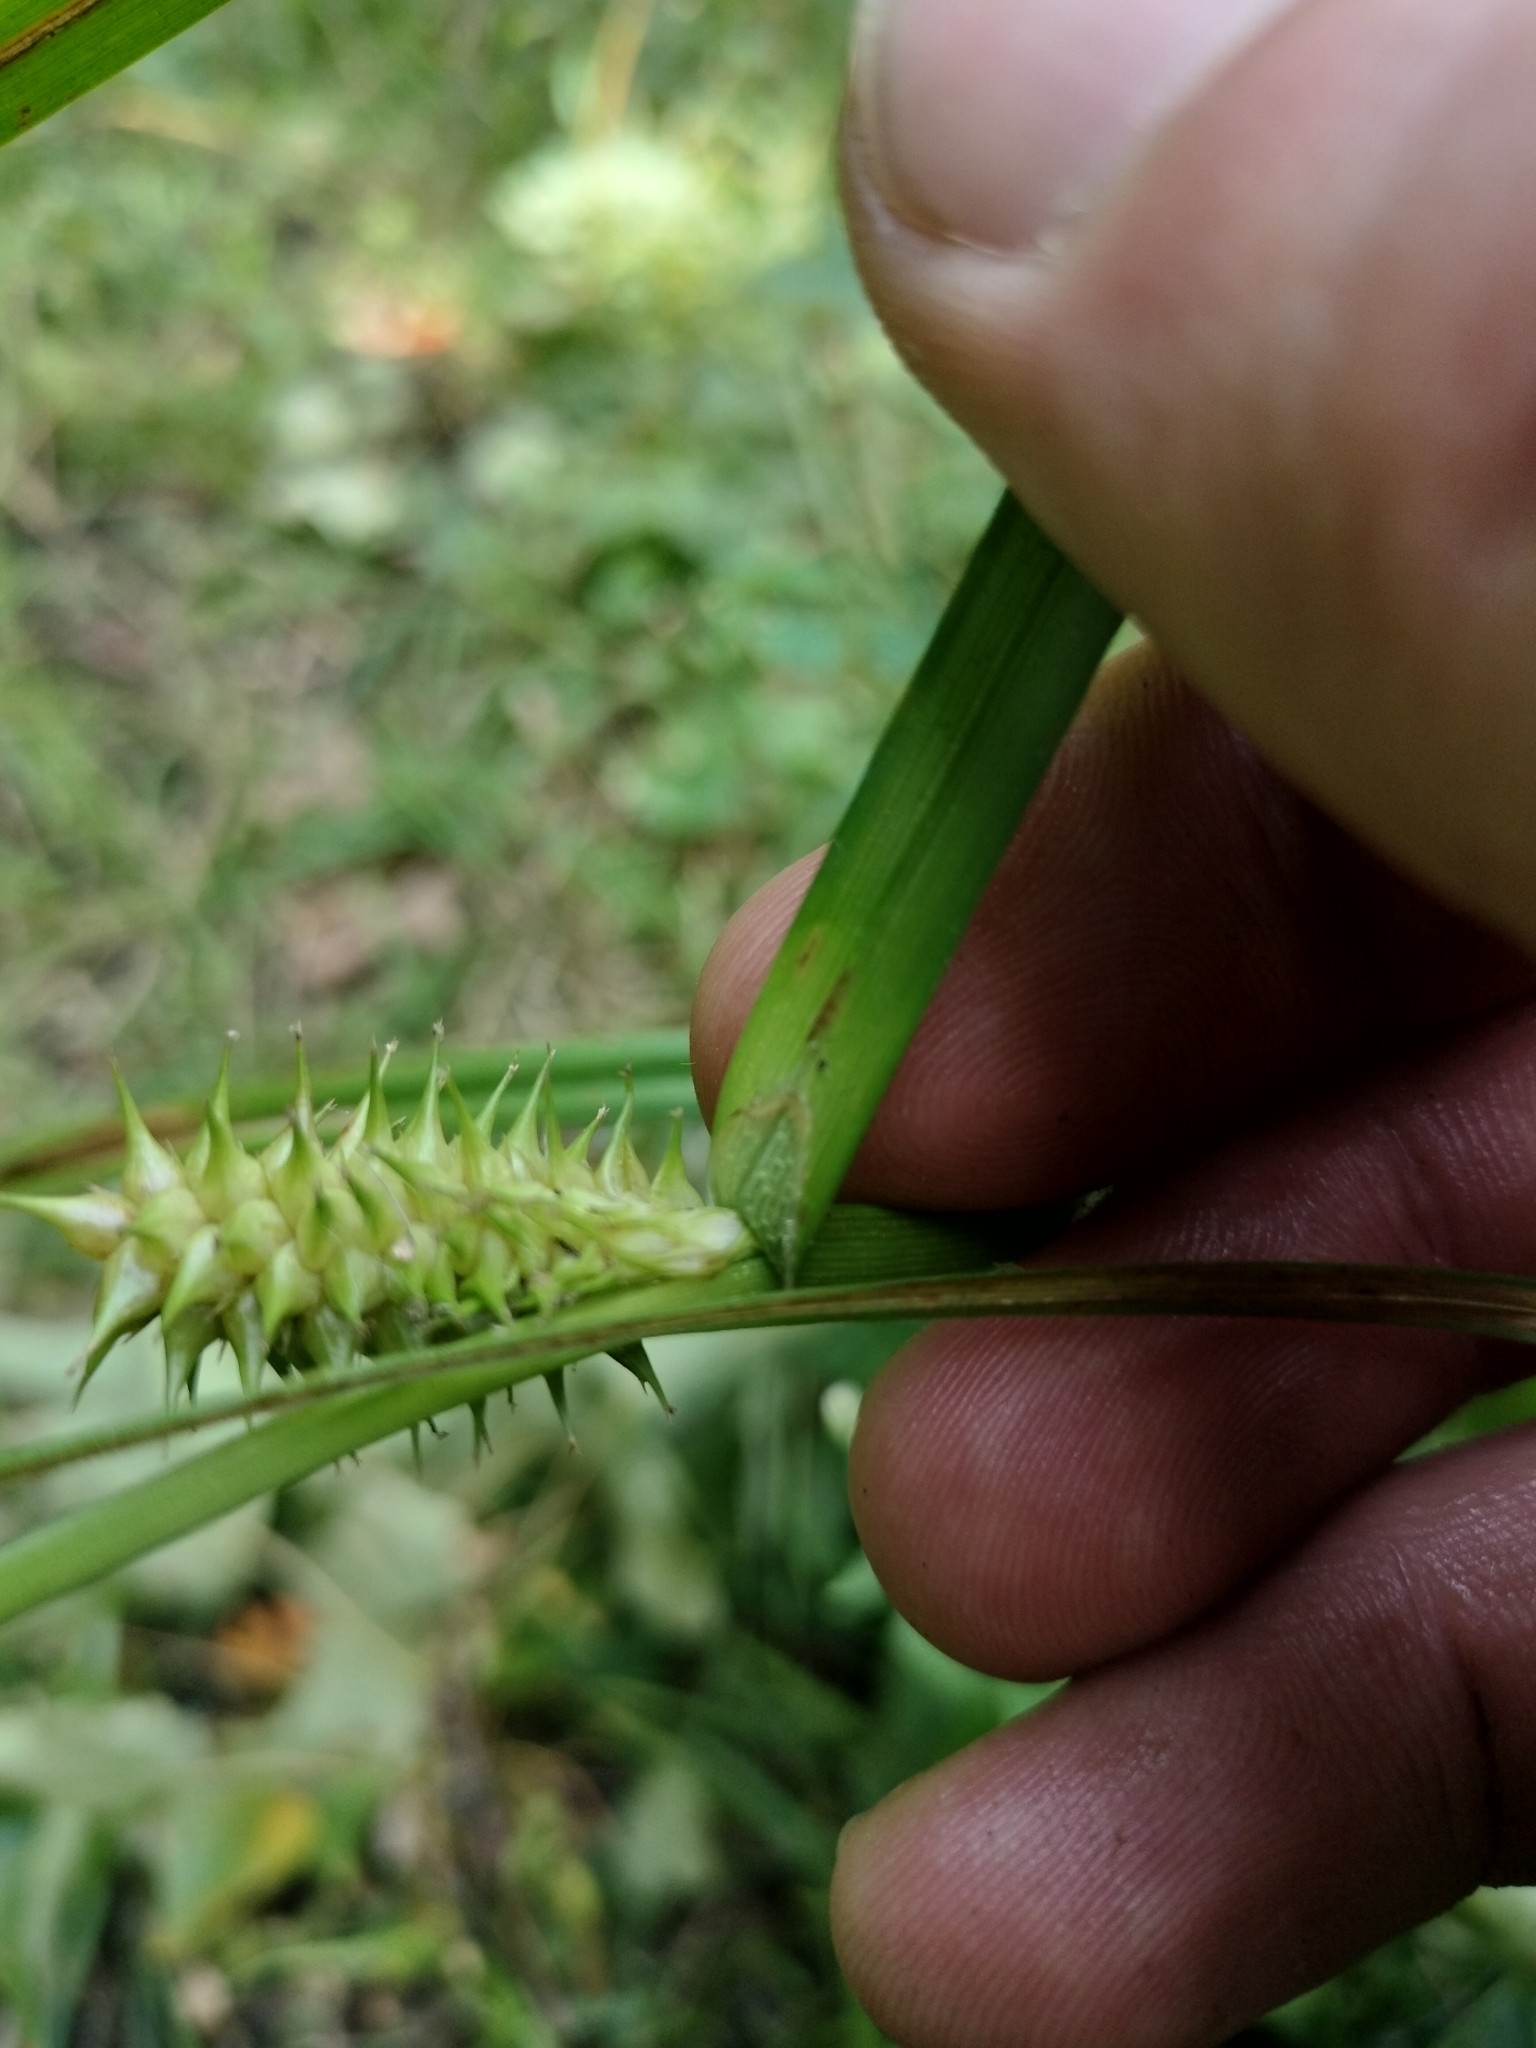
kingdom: Plantae
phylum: Tracheophyta
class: Liliopsida
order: Poales
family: Cyperaceae
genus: Carex
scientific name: Carex retrorsa
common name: Knot-sheath sedge
